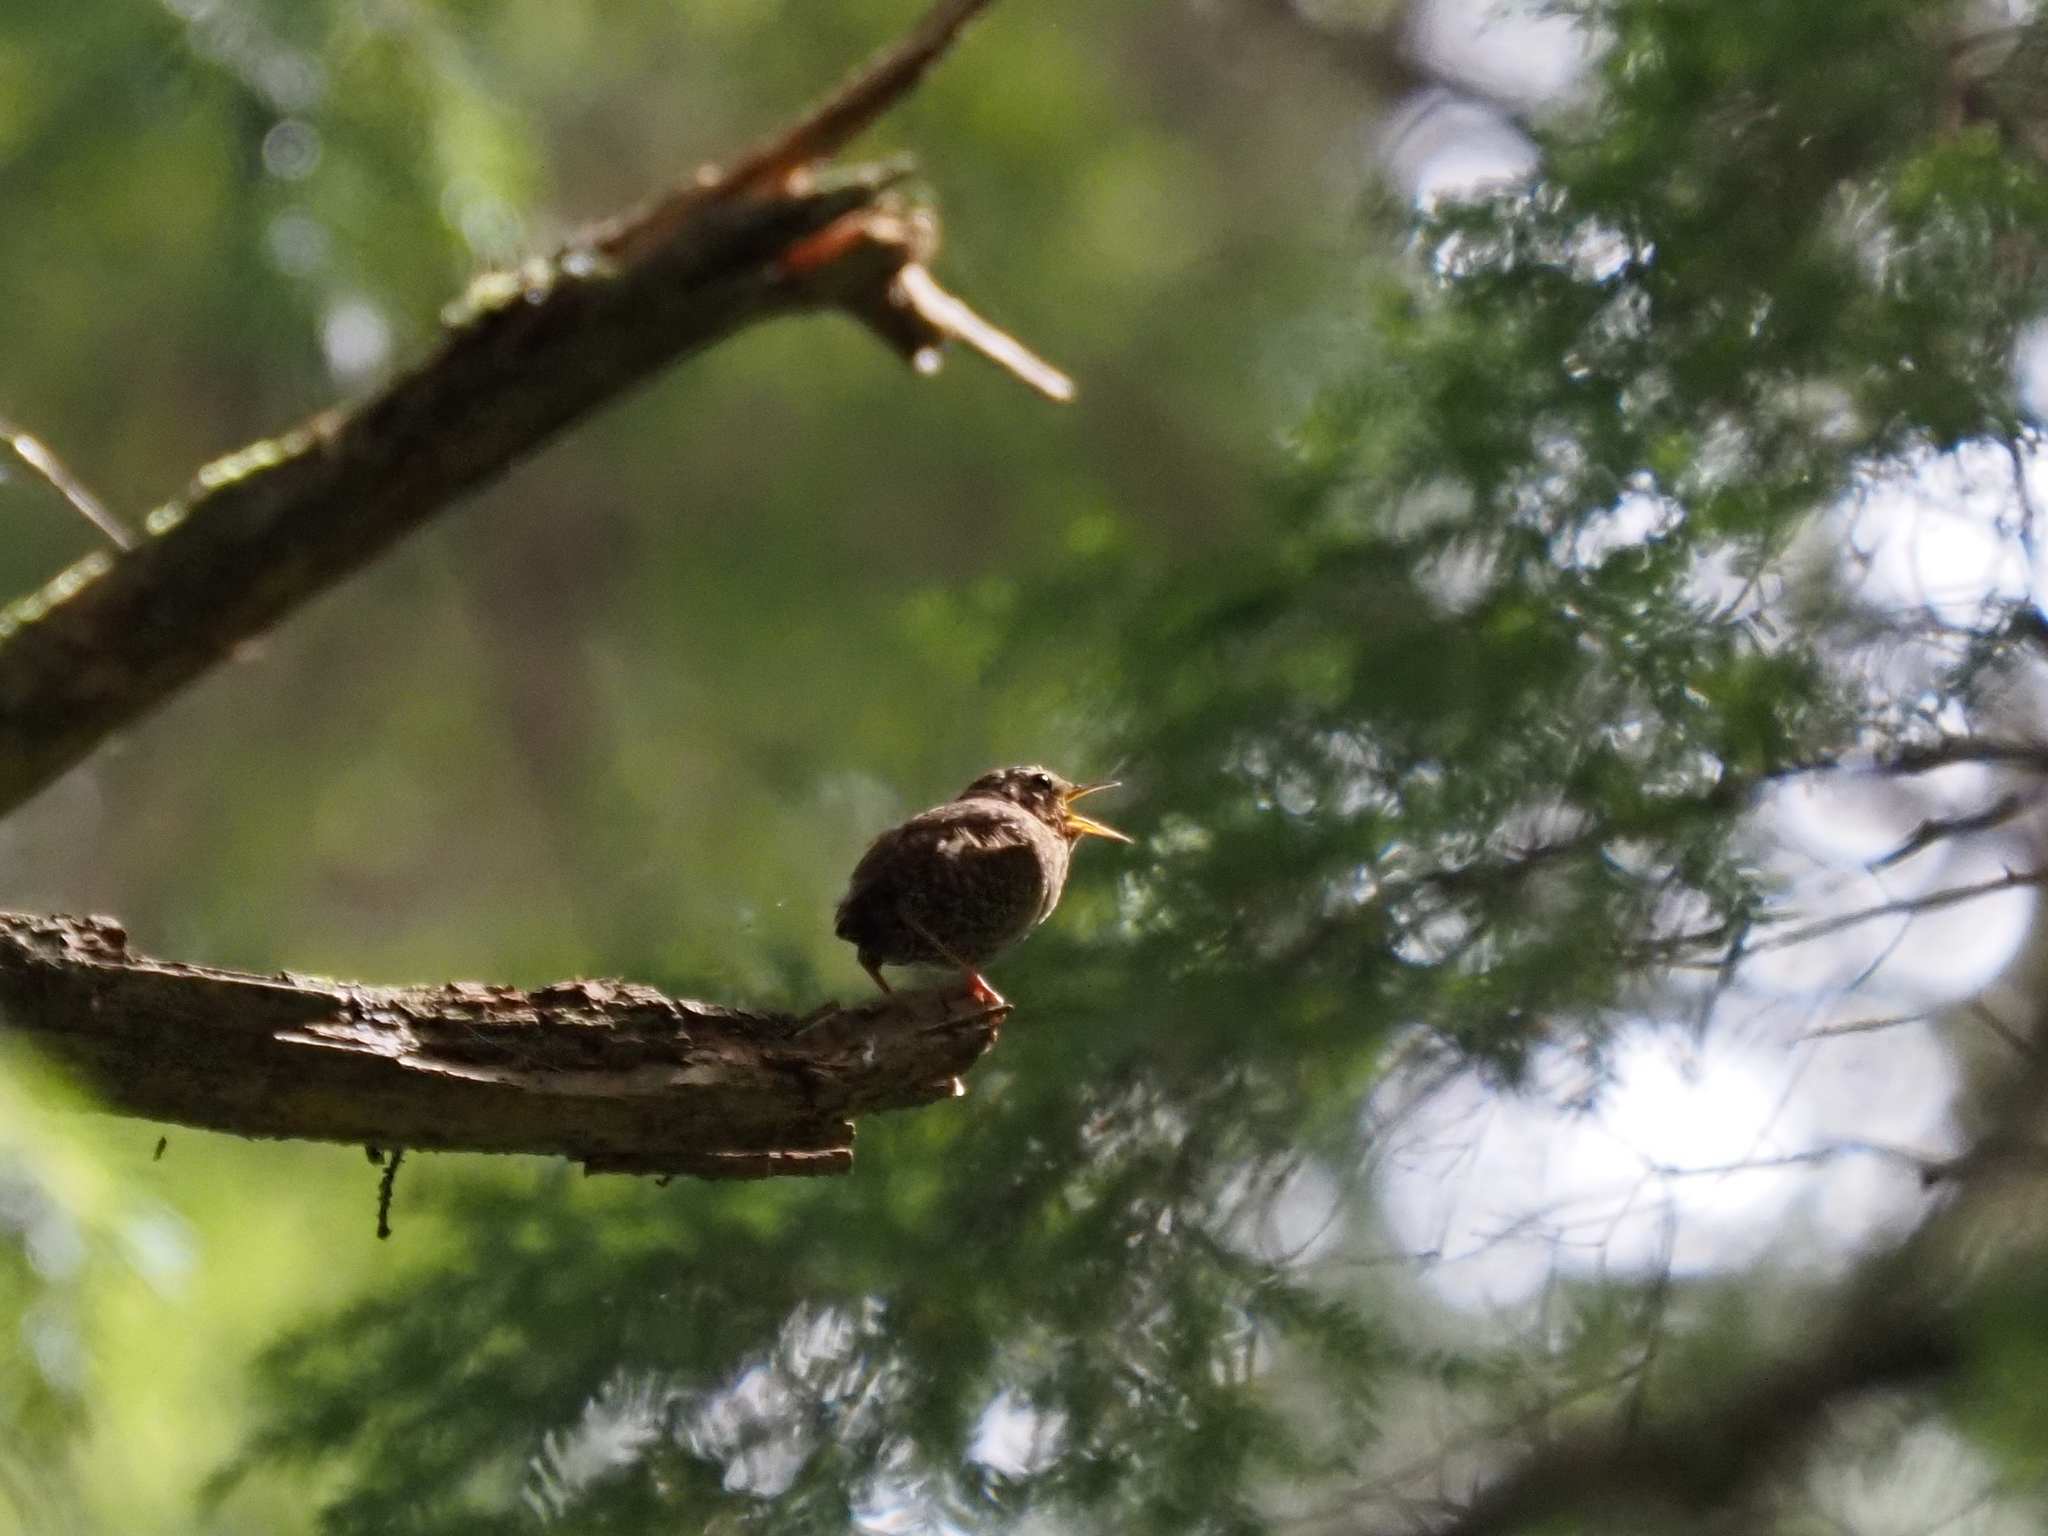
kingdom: Animalia
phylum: Chordata
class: Aves
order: Passeriformes
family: Troglodytidae
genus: Troglodytes
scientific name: Troglodytes pacificus
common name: Pacific wren
